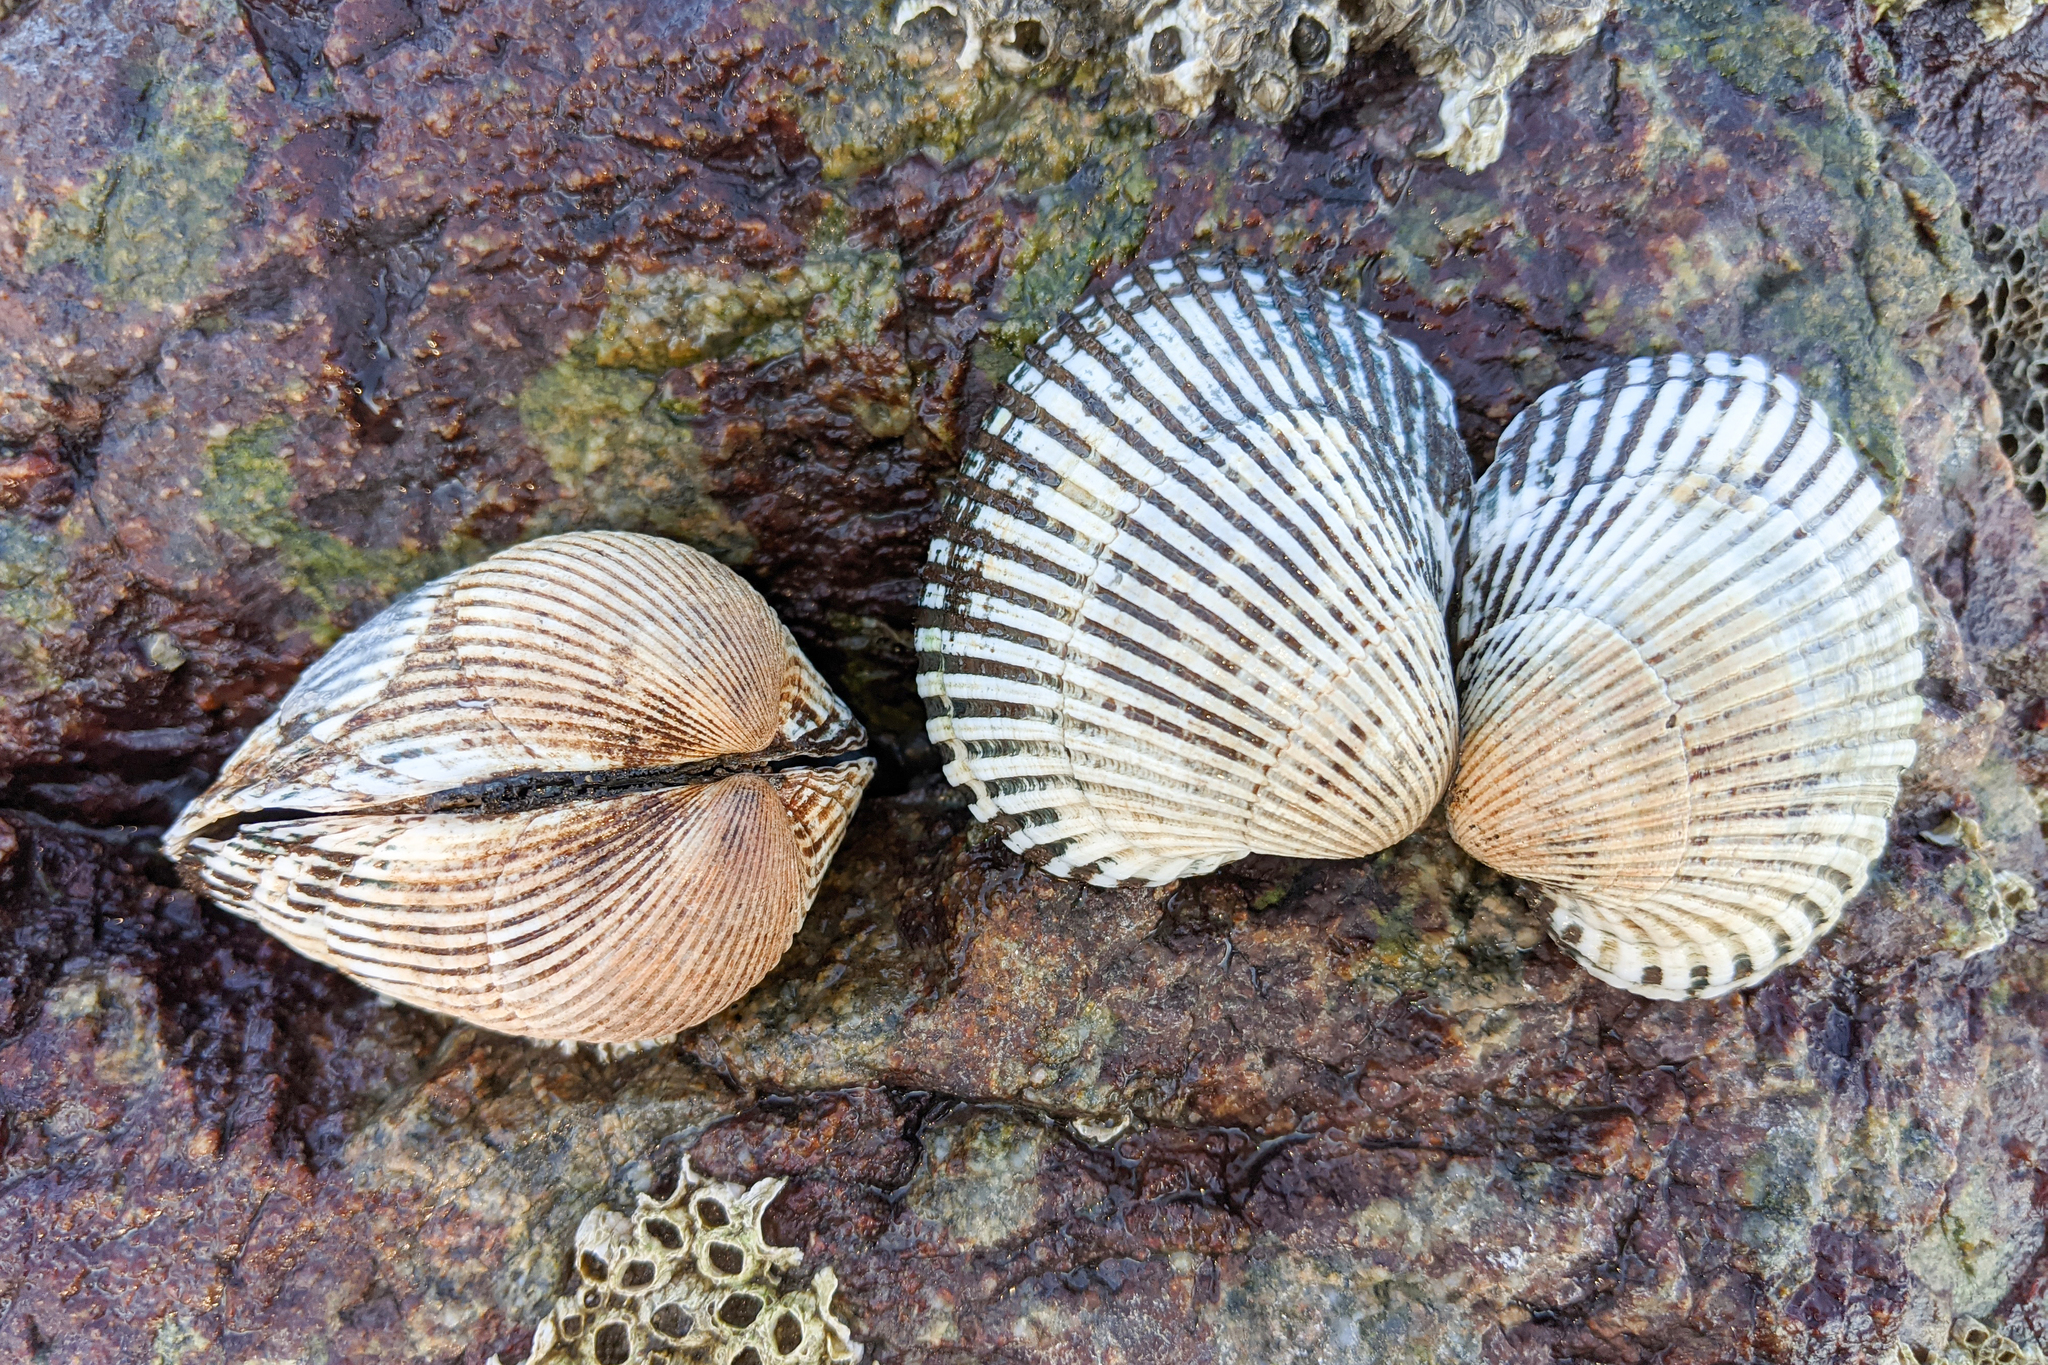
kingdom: Animalia
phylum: Mollusca
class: Bivalvia
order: Arcida
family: Arcidae
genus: Lunarca
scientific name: Lunarca ovalis
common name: Blood ark
